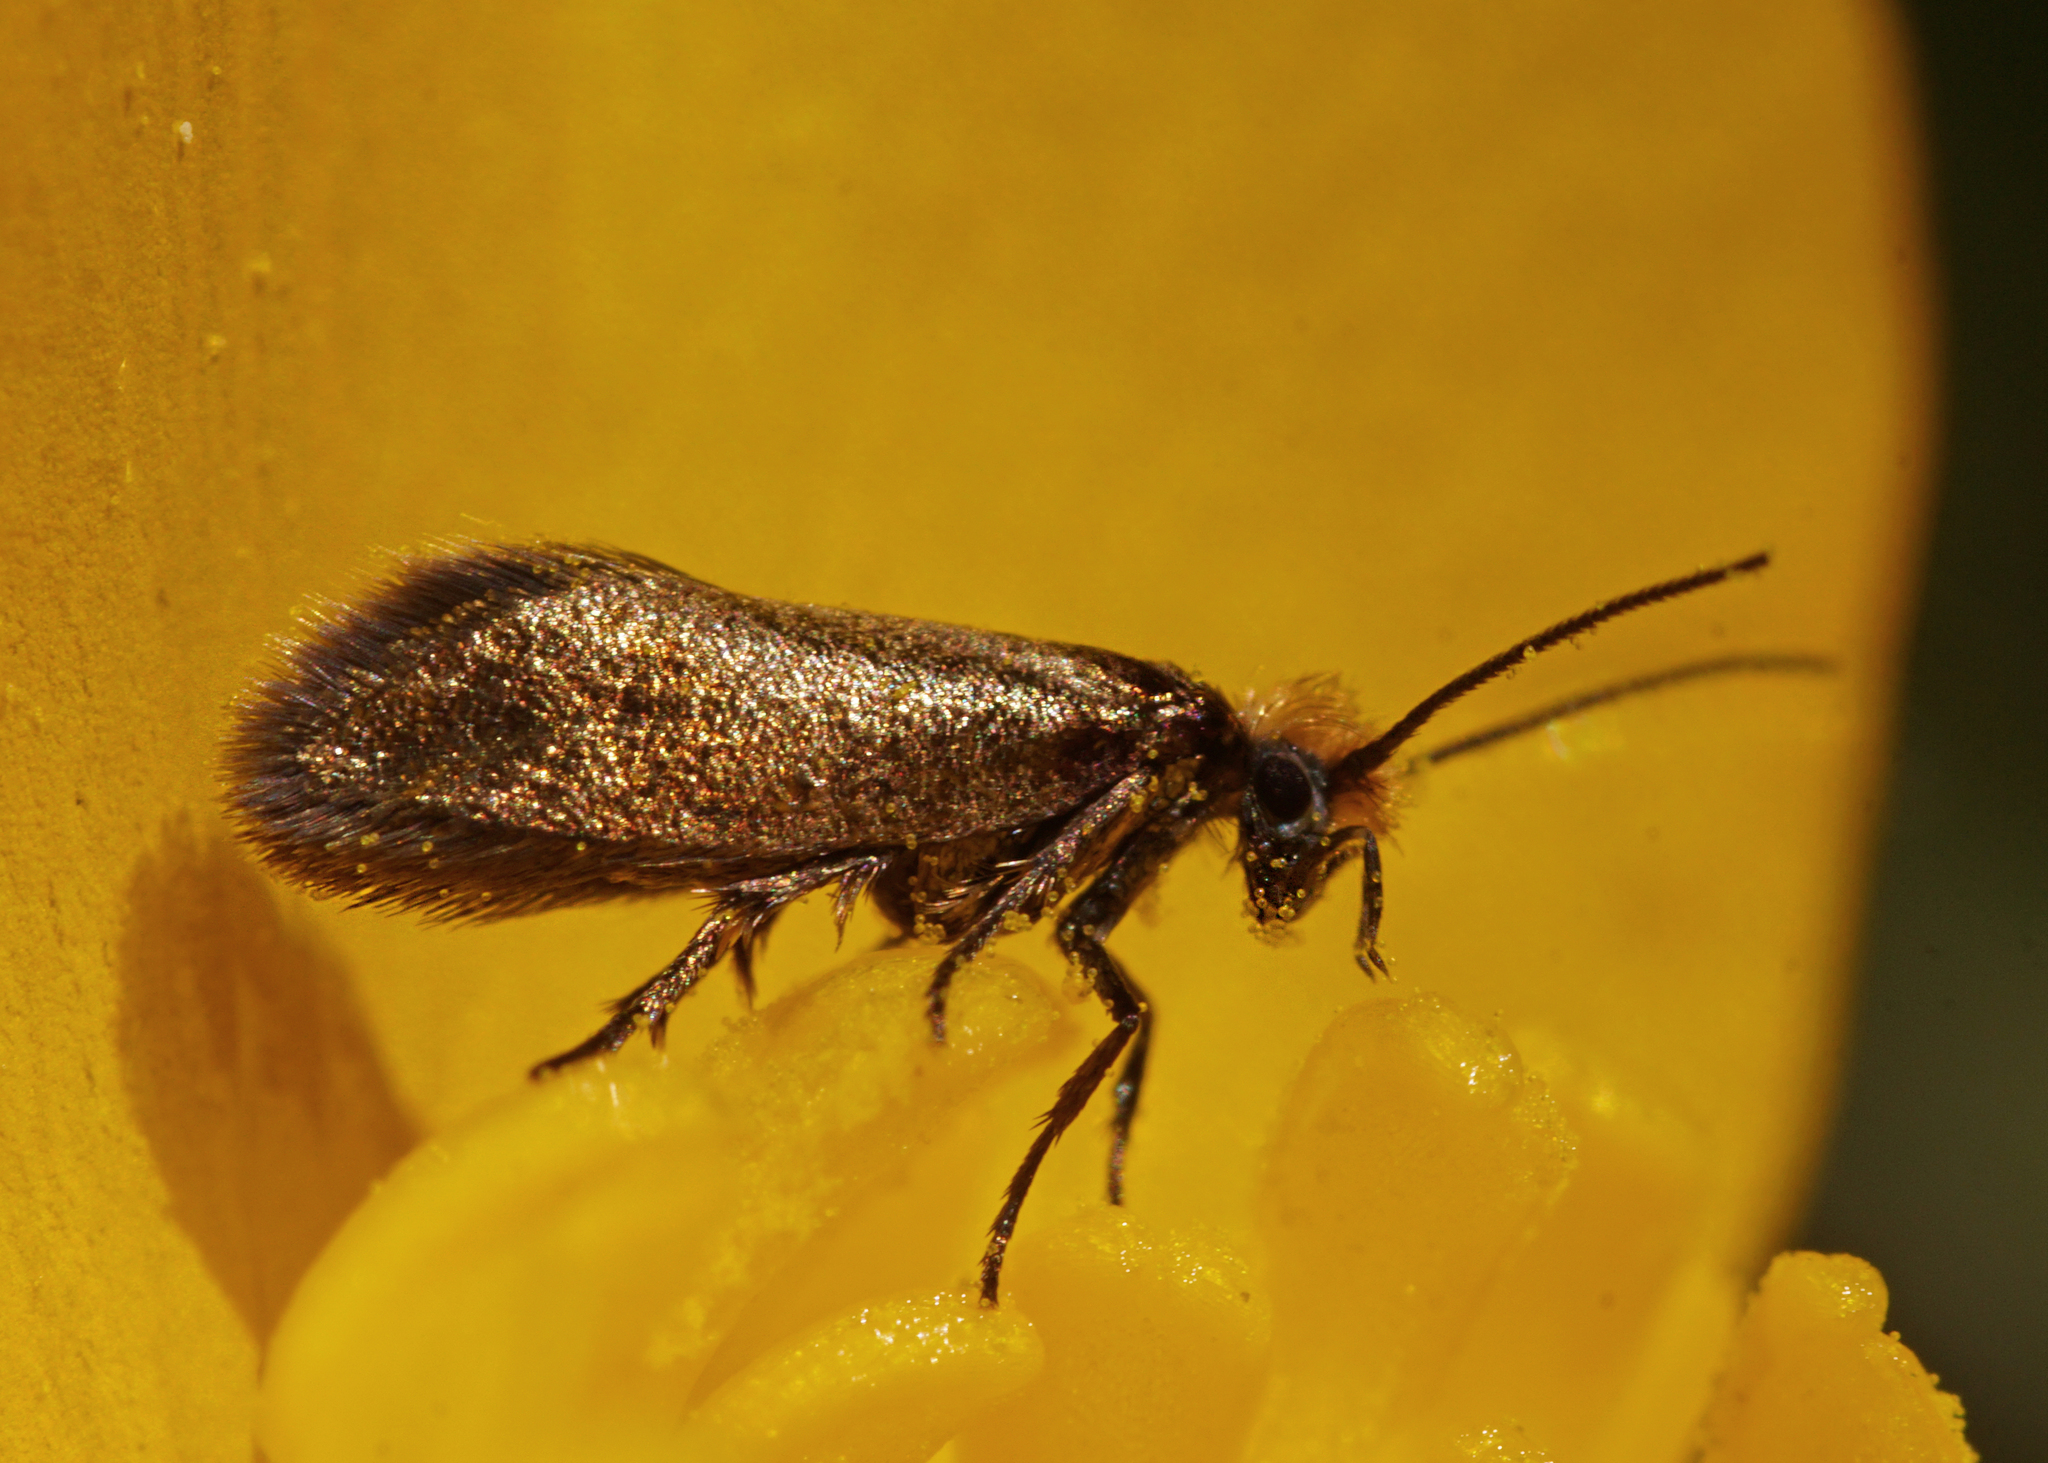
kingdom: Animalia
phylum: Arthropoda
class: Insecta
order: Lepidoptera
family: Micropterigidae
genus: Micropterix
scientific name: Micropterix calthella
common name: Plain gold
